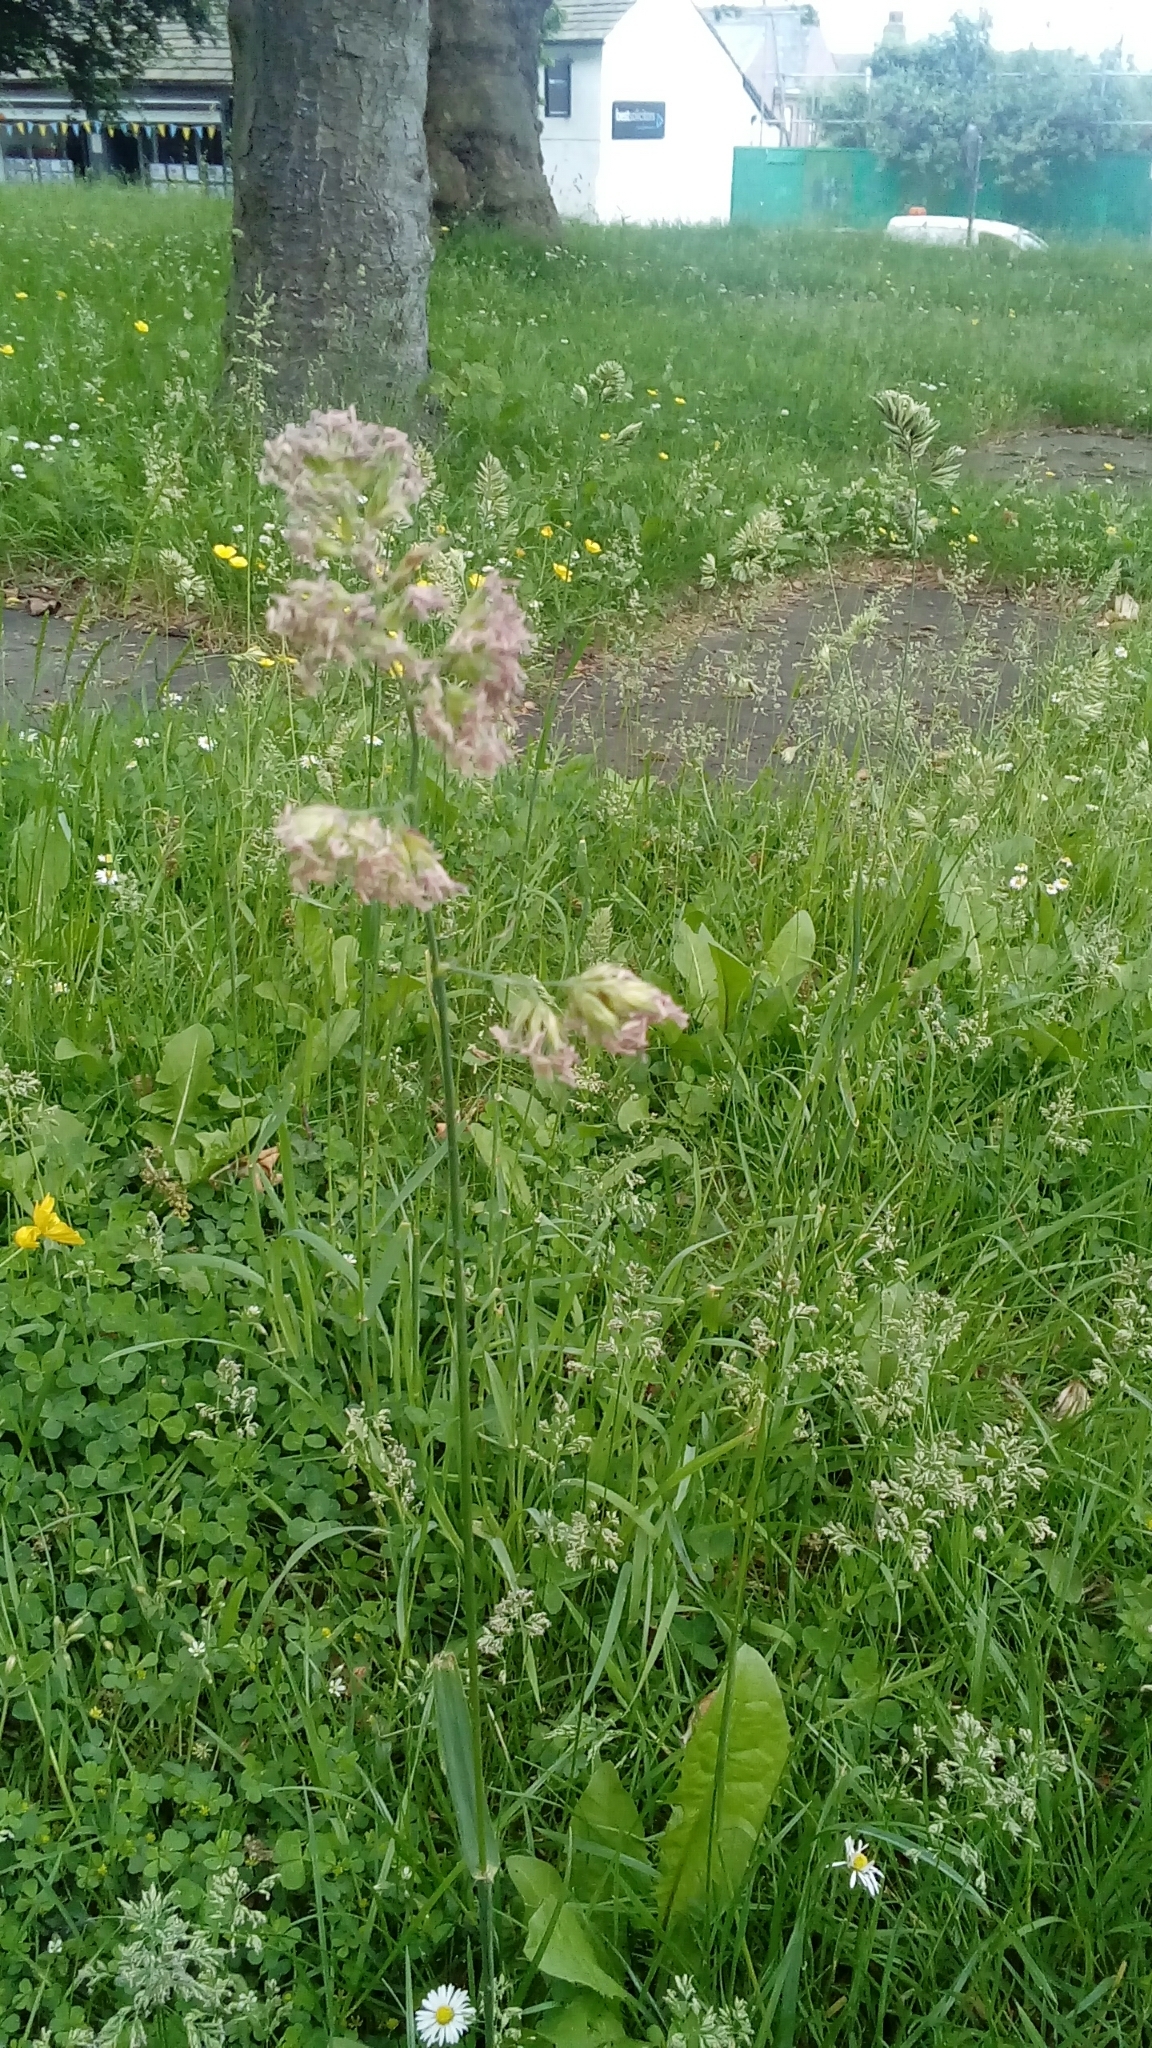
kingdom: Plantae
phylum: Tracheophyta
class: Liliopsida
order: Poales
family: Poaceae
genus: Dactylis
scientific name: Dactylis glomerata
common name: Orchardgrass
